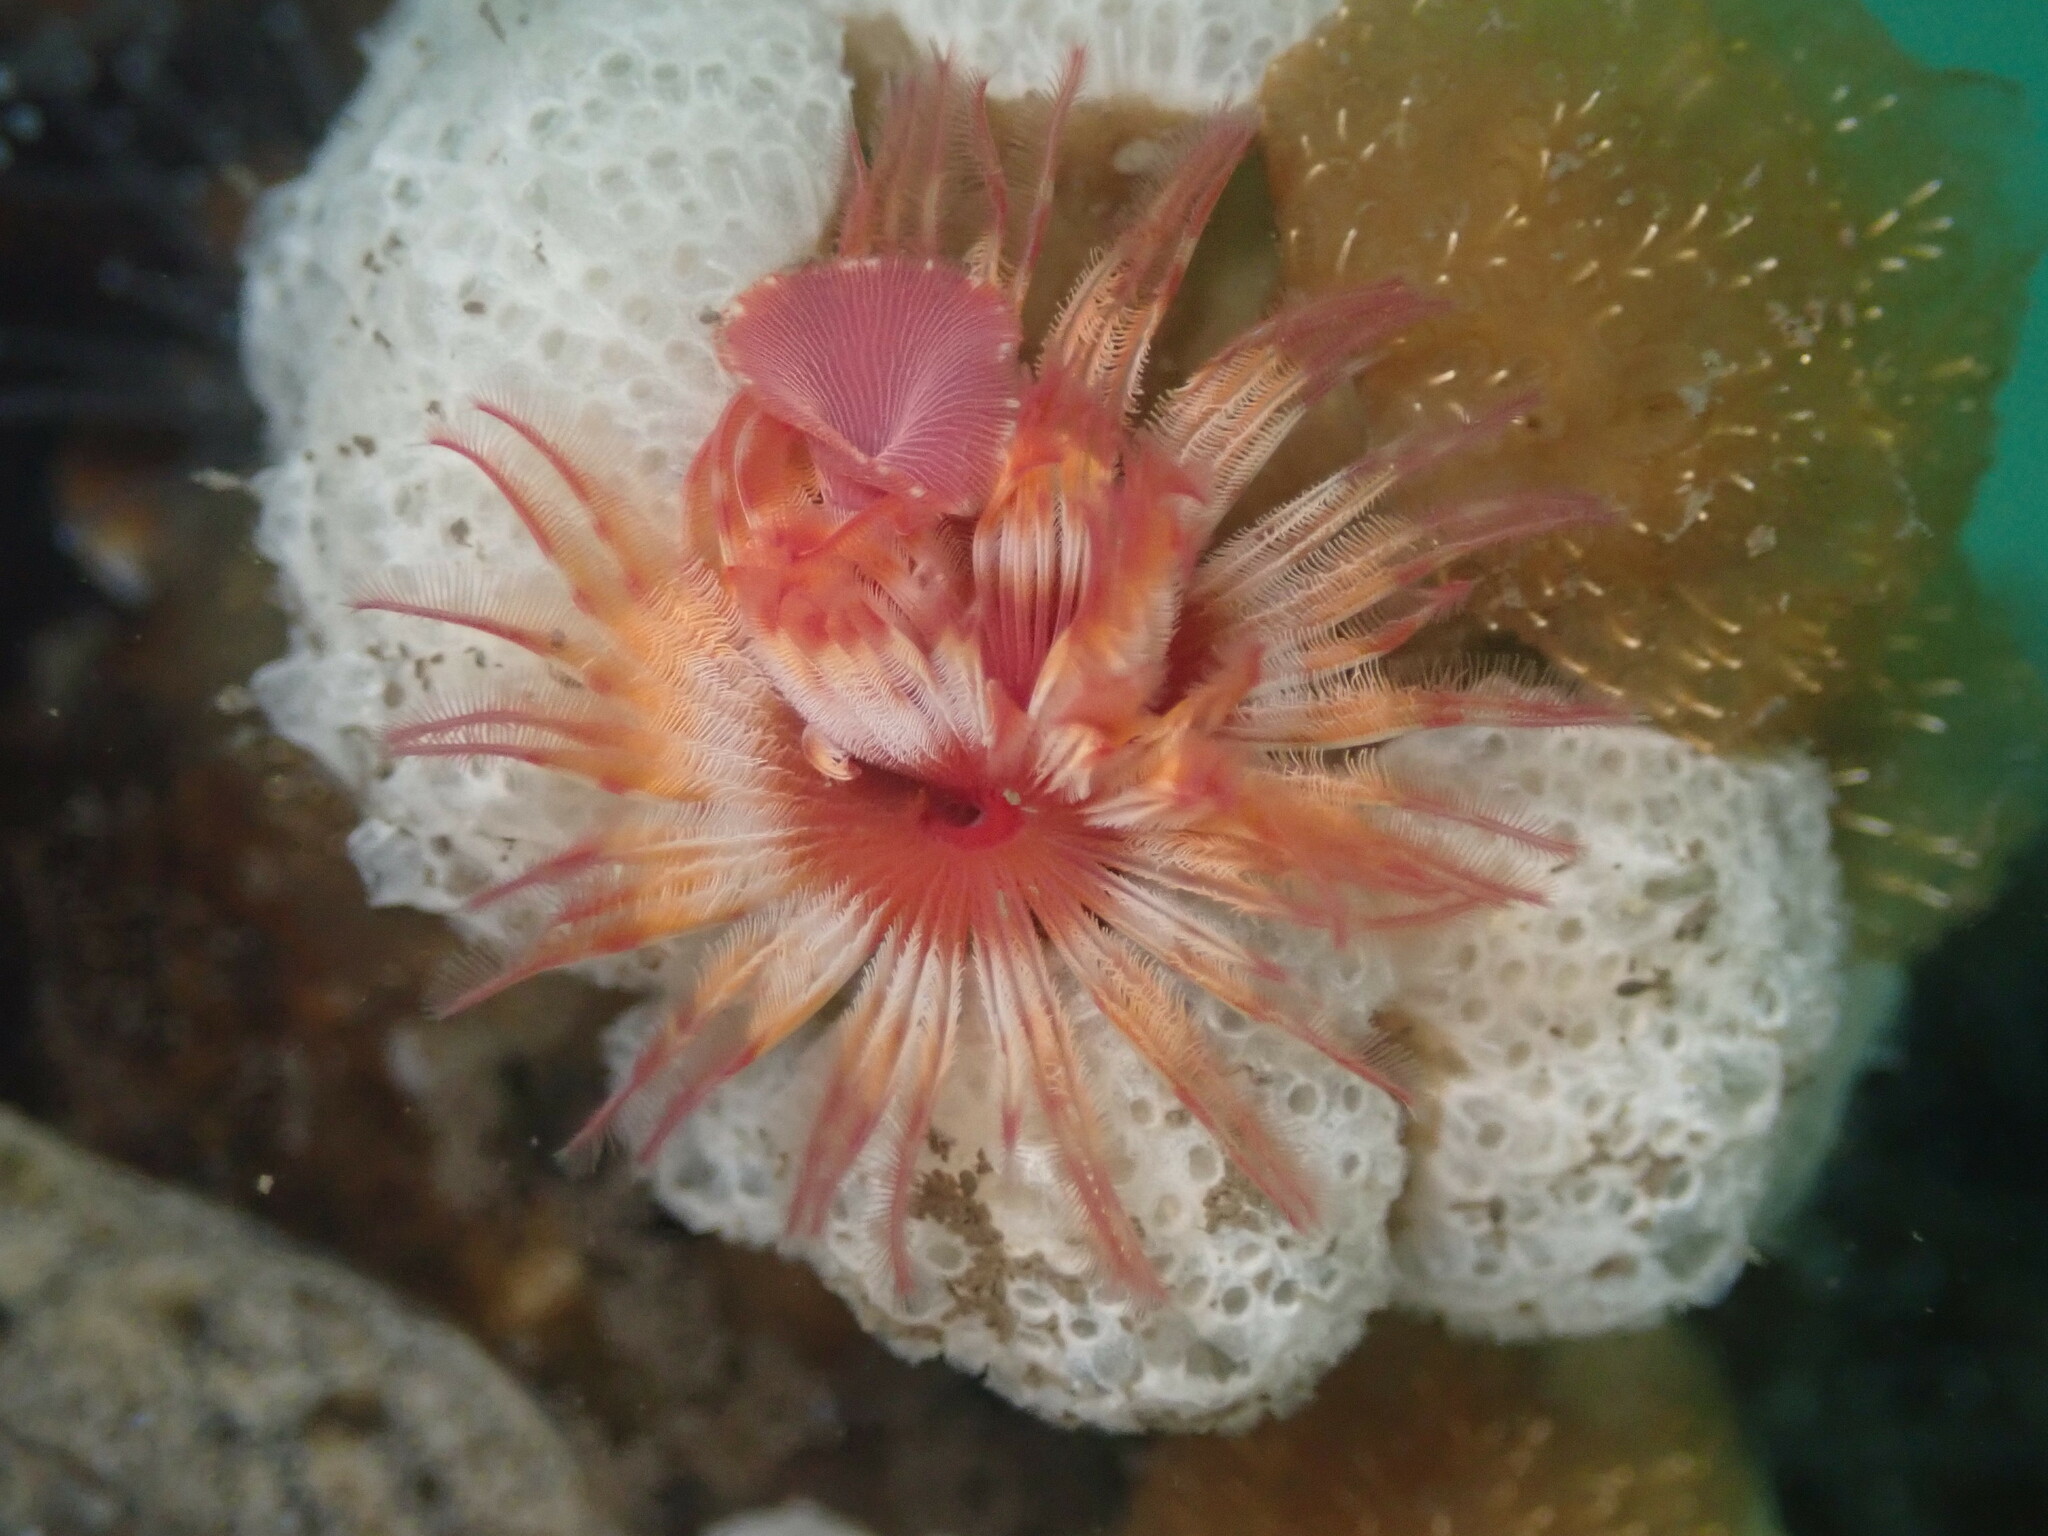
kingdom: Animalia
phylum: Annelida
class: Polychaeta
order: Sabellida
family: Serpulidae
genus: Serpula
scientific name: Serpula columbiana
